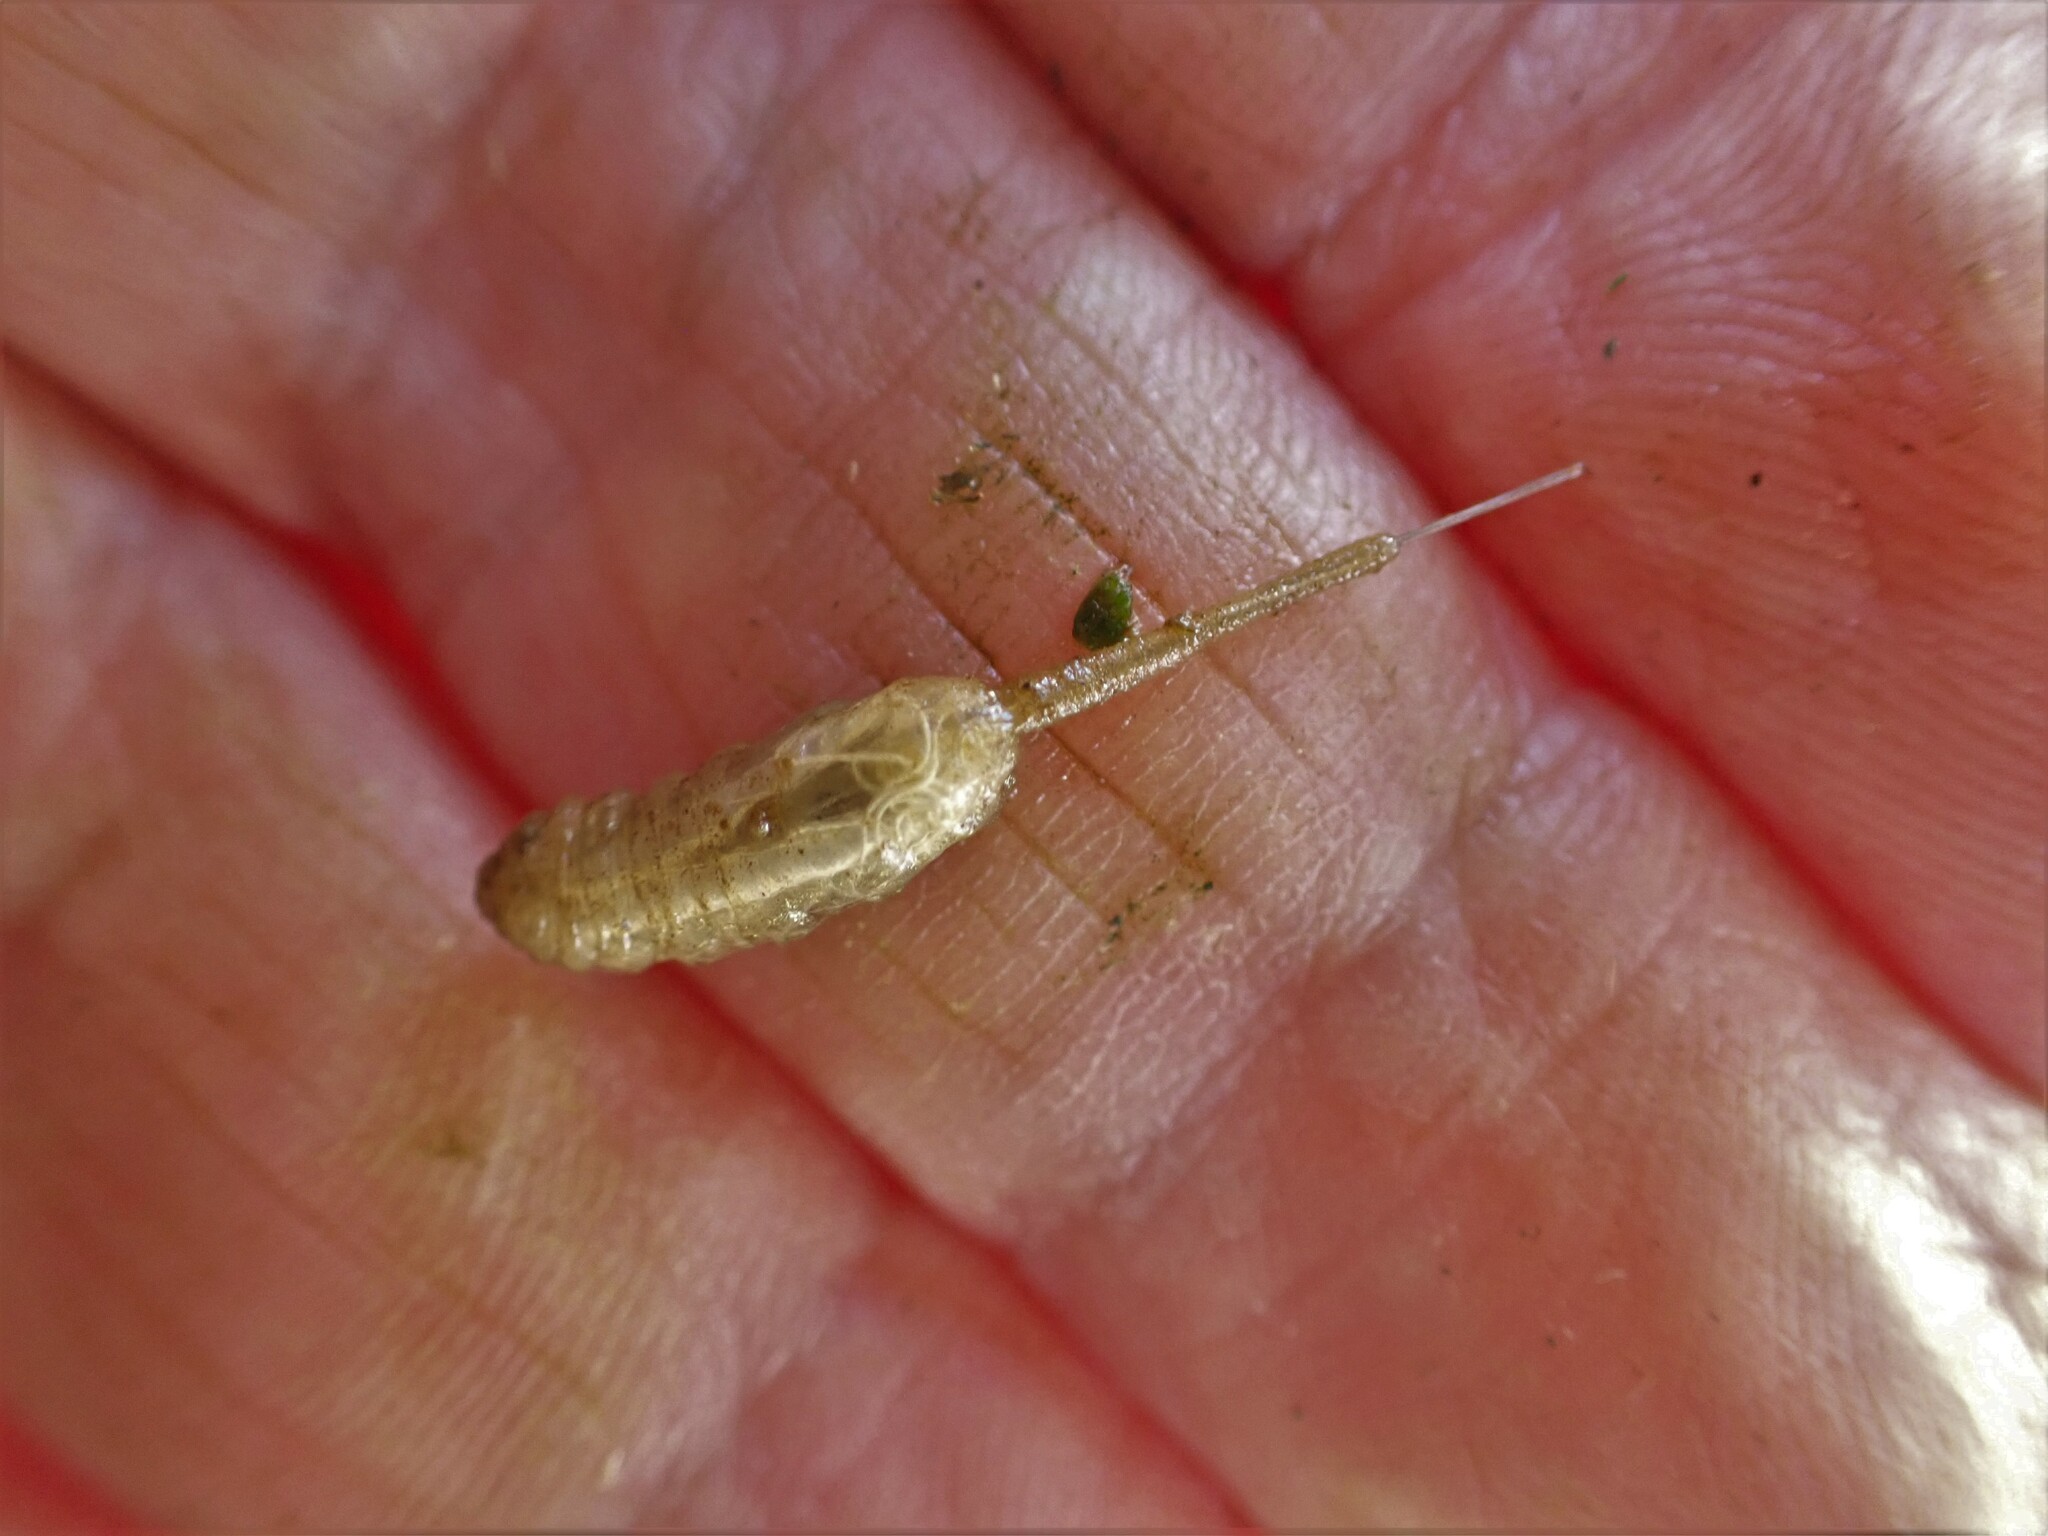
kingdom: Animalia
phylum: Arthropoda
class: Insecta
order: Diptera
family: Syrphidae
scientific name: Syrphidae
